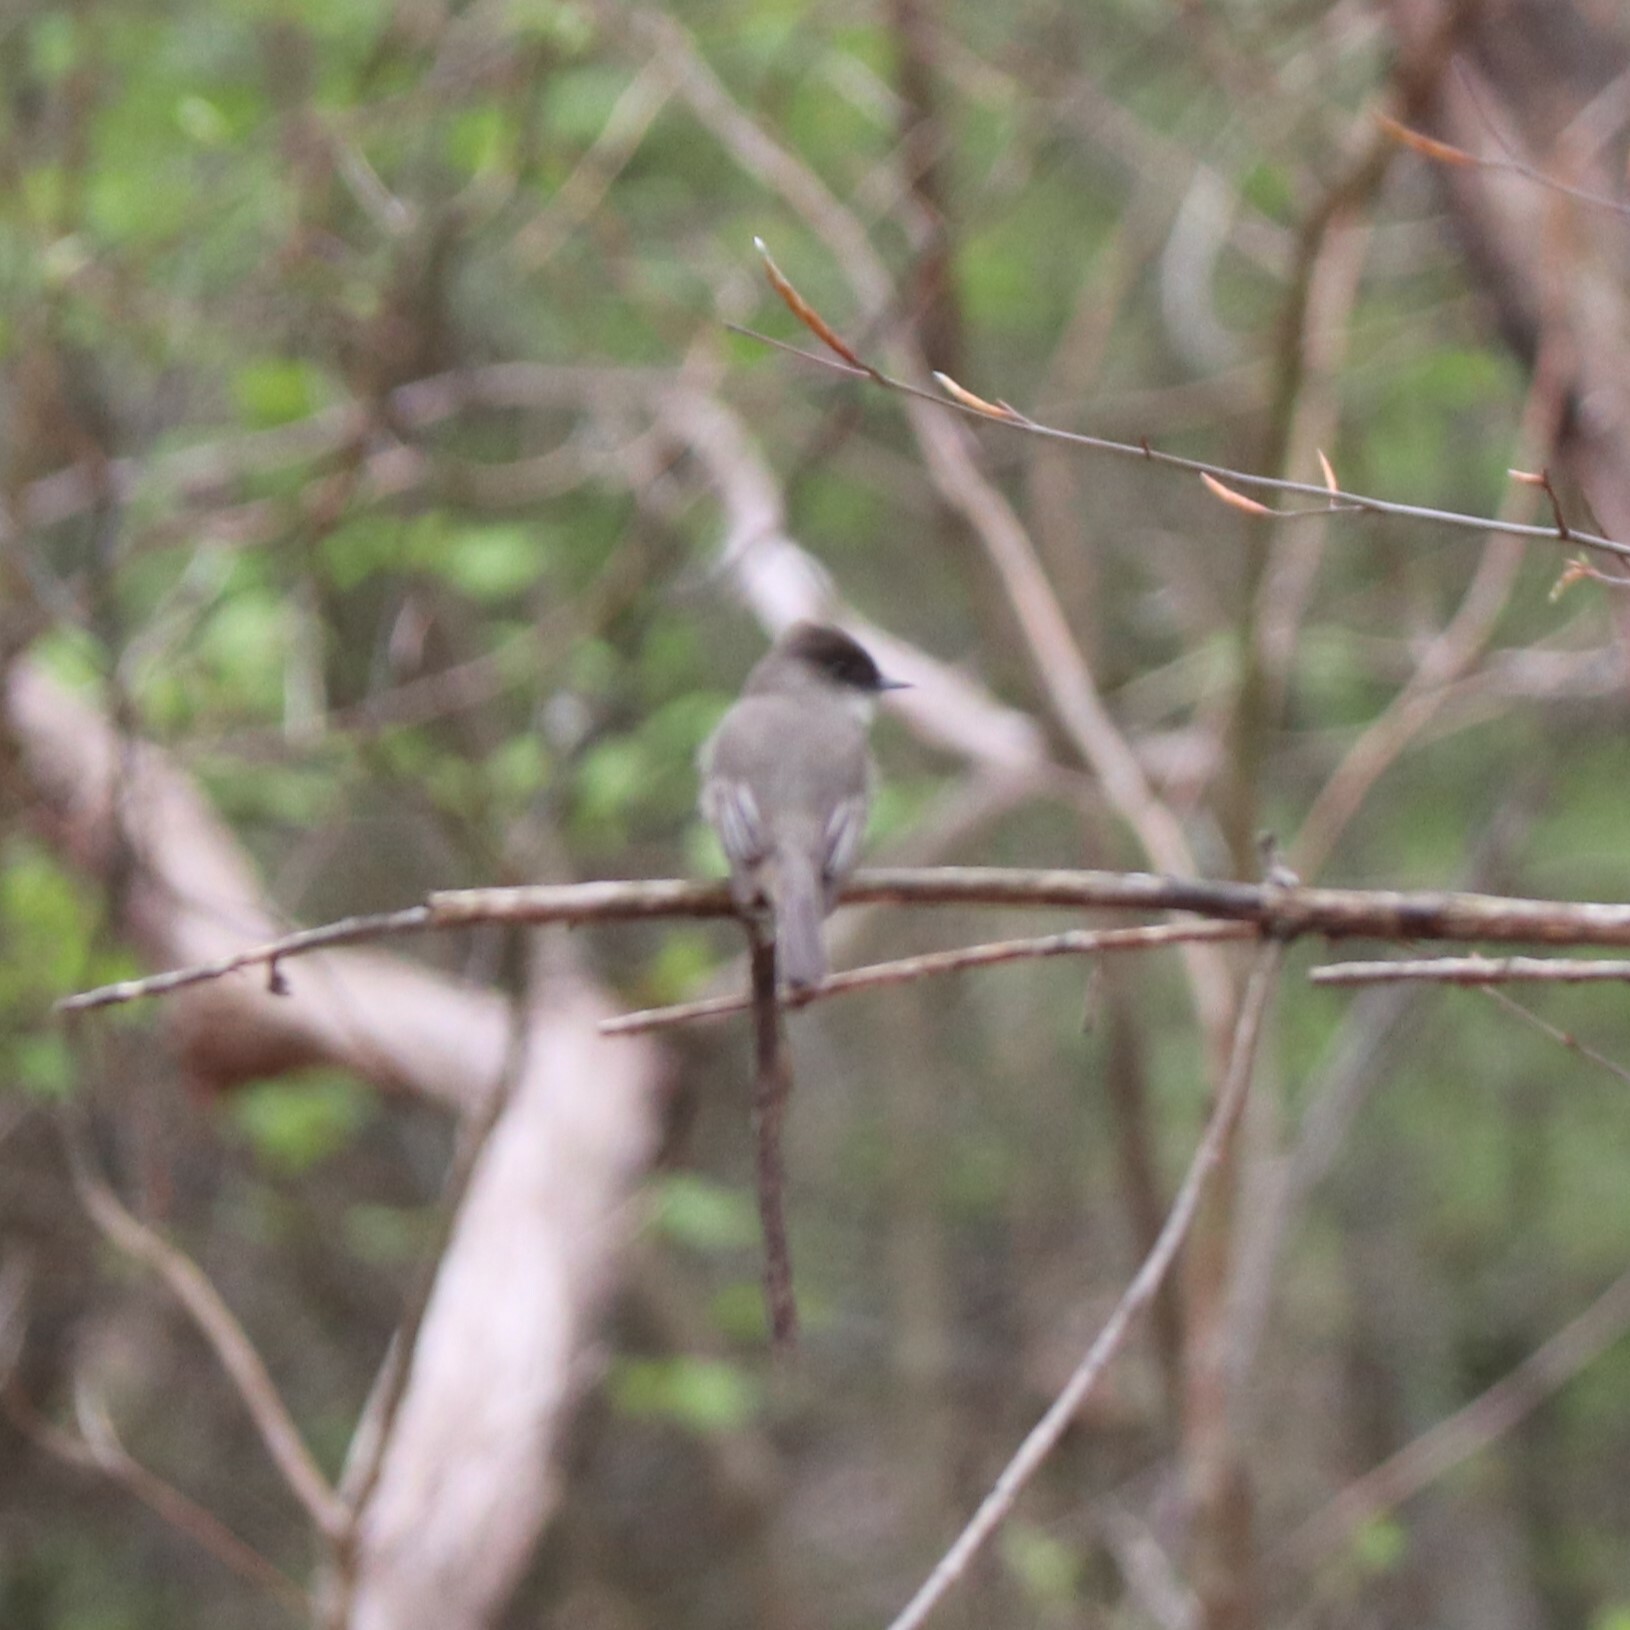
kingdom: Animalia
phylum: Chordata
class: Aves
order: Passeriformes
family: Tyrannidae
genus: Sayornis
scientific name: Sayornis phoebe
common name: Eastern phoebe
